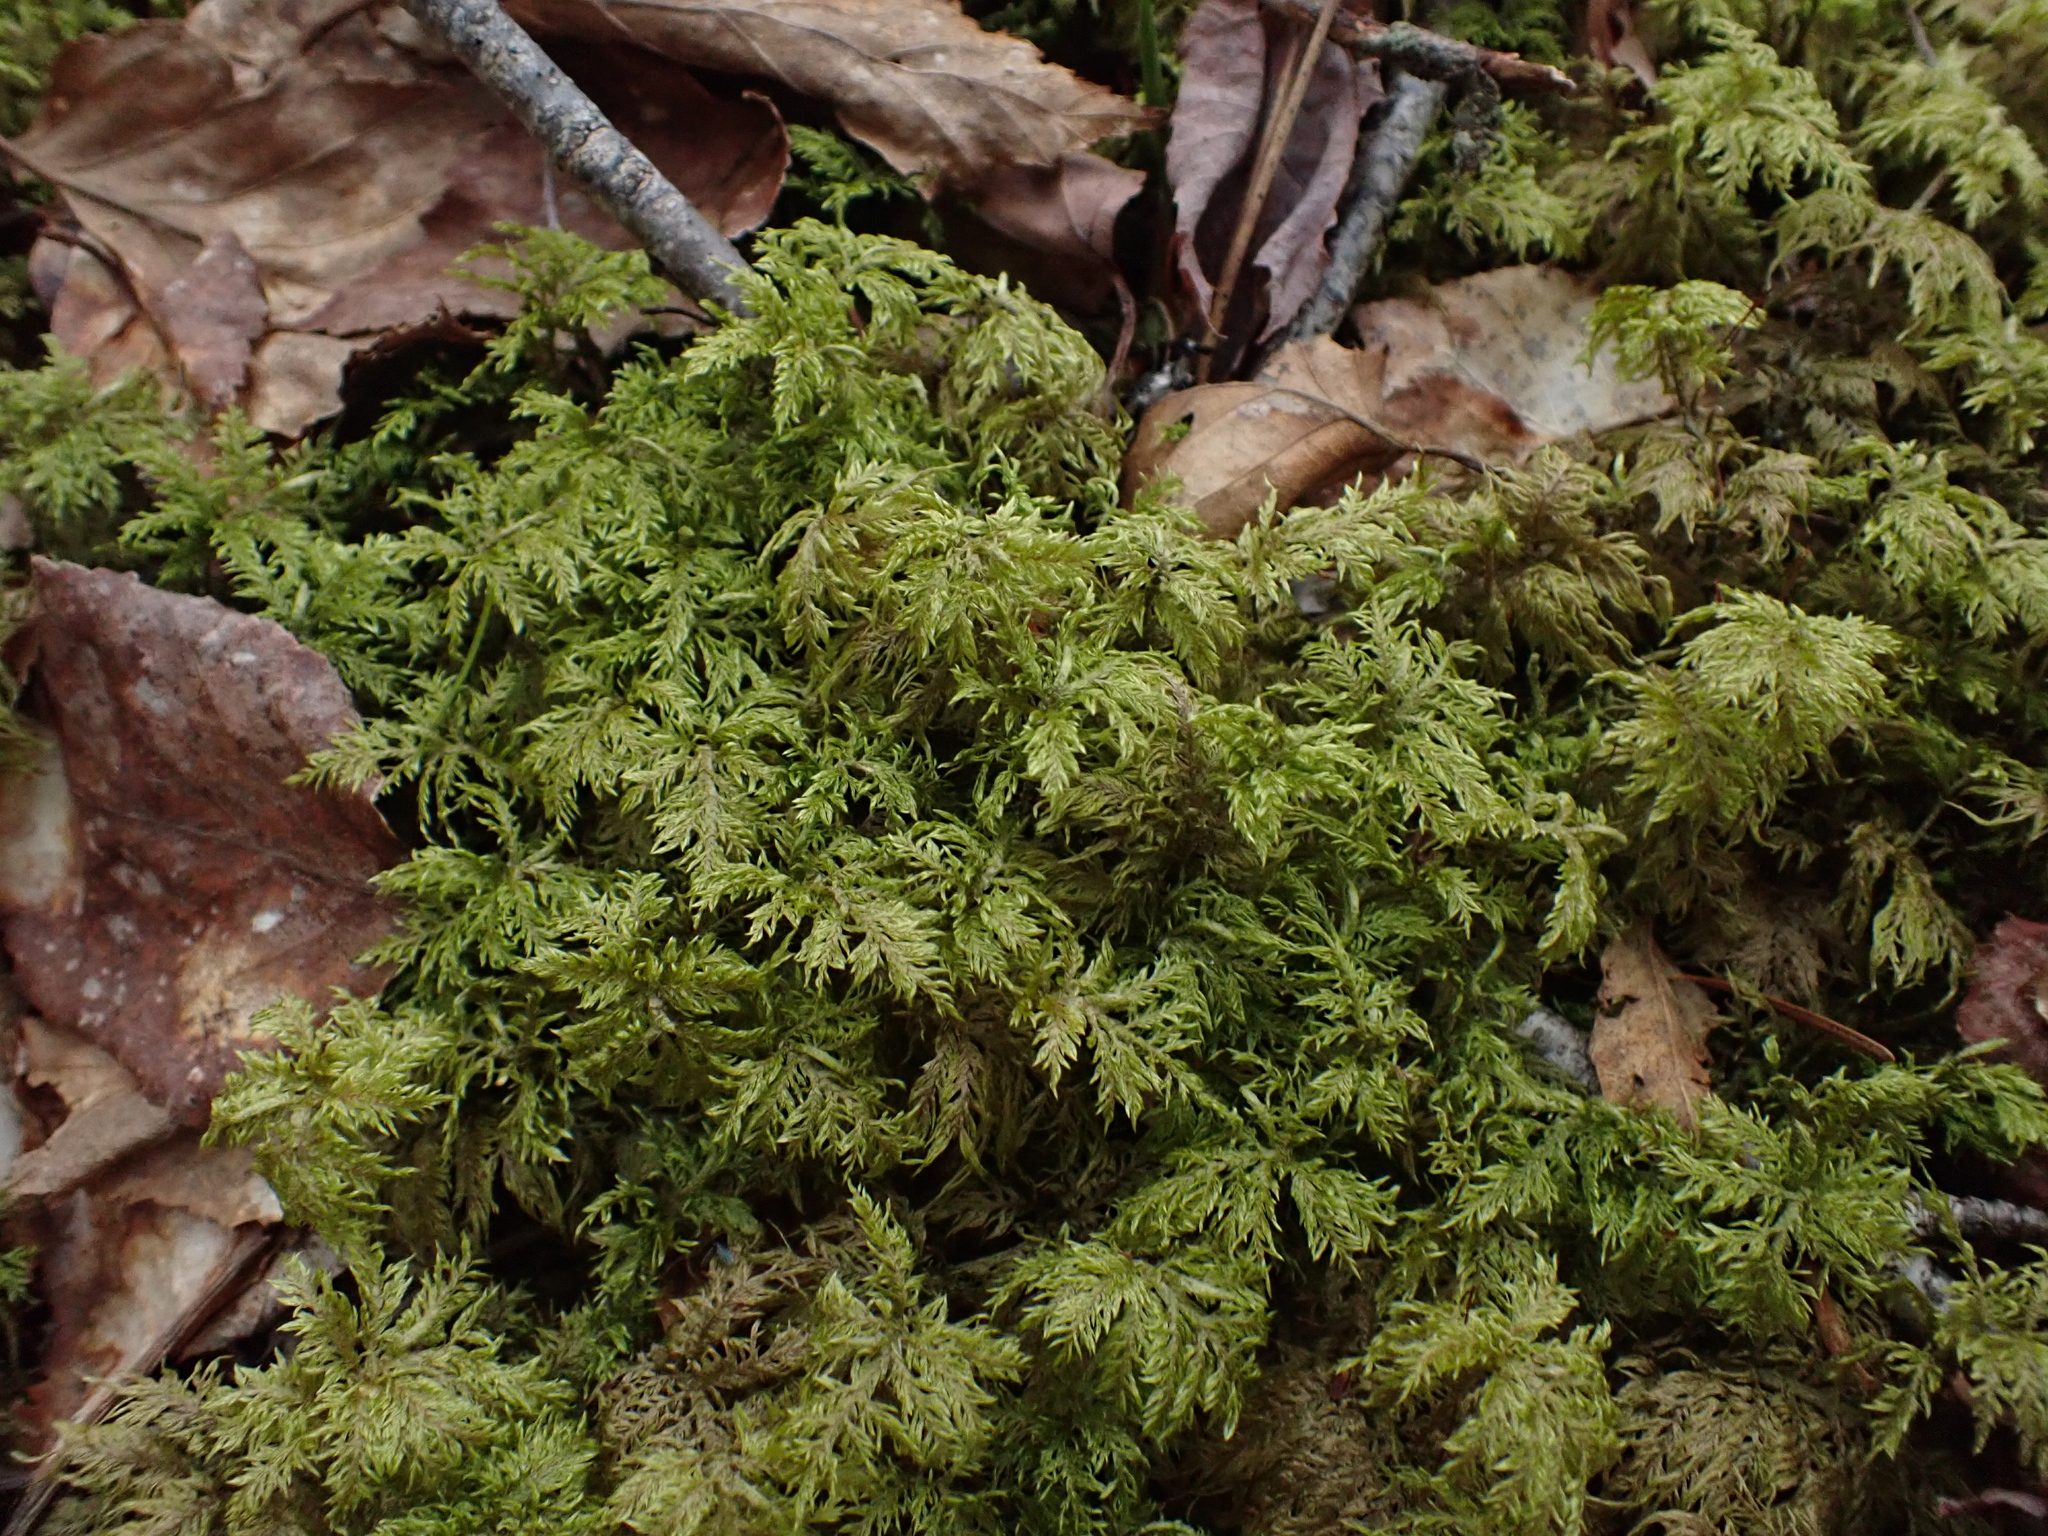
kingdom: Plantae
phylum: Bryophyta
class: Bryopsida
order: Hypnales
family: Hylocomiaceae
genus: Hylocomium
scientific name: Hylocomium splendens
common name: Stairstep moss
